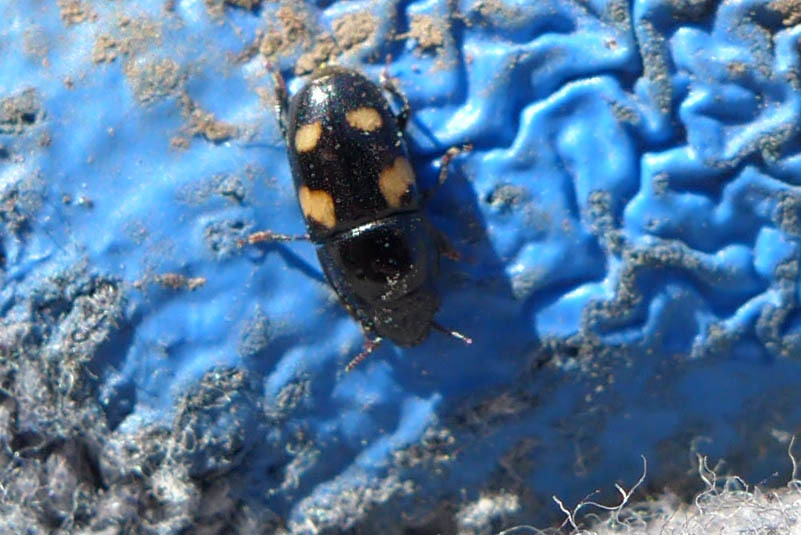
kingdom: Animalia
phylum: Arthropoda
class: Insecta
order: Coleoptera
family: Nitidulidae
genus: Glischrochilus
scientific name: Glischrochilus quadrisignatus
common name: Picnic beetle
